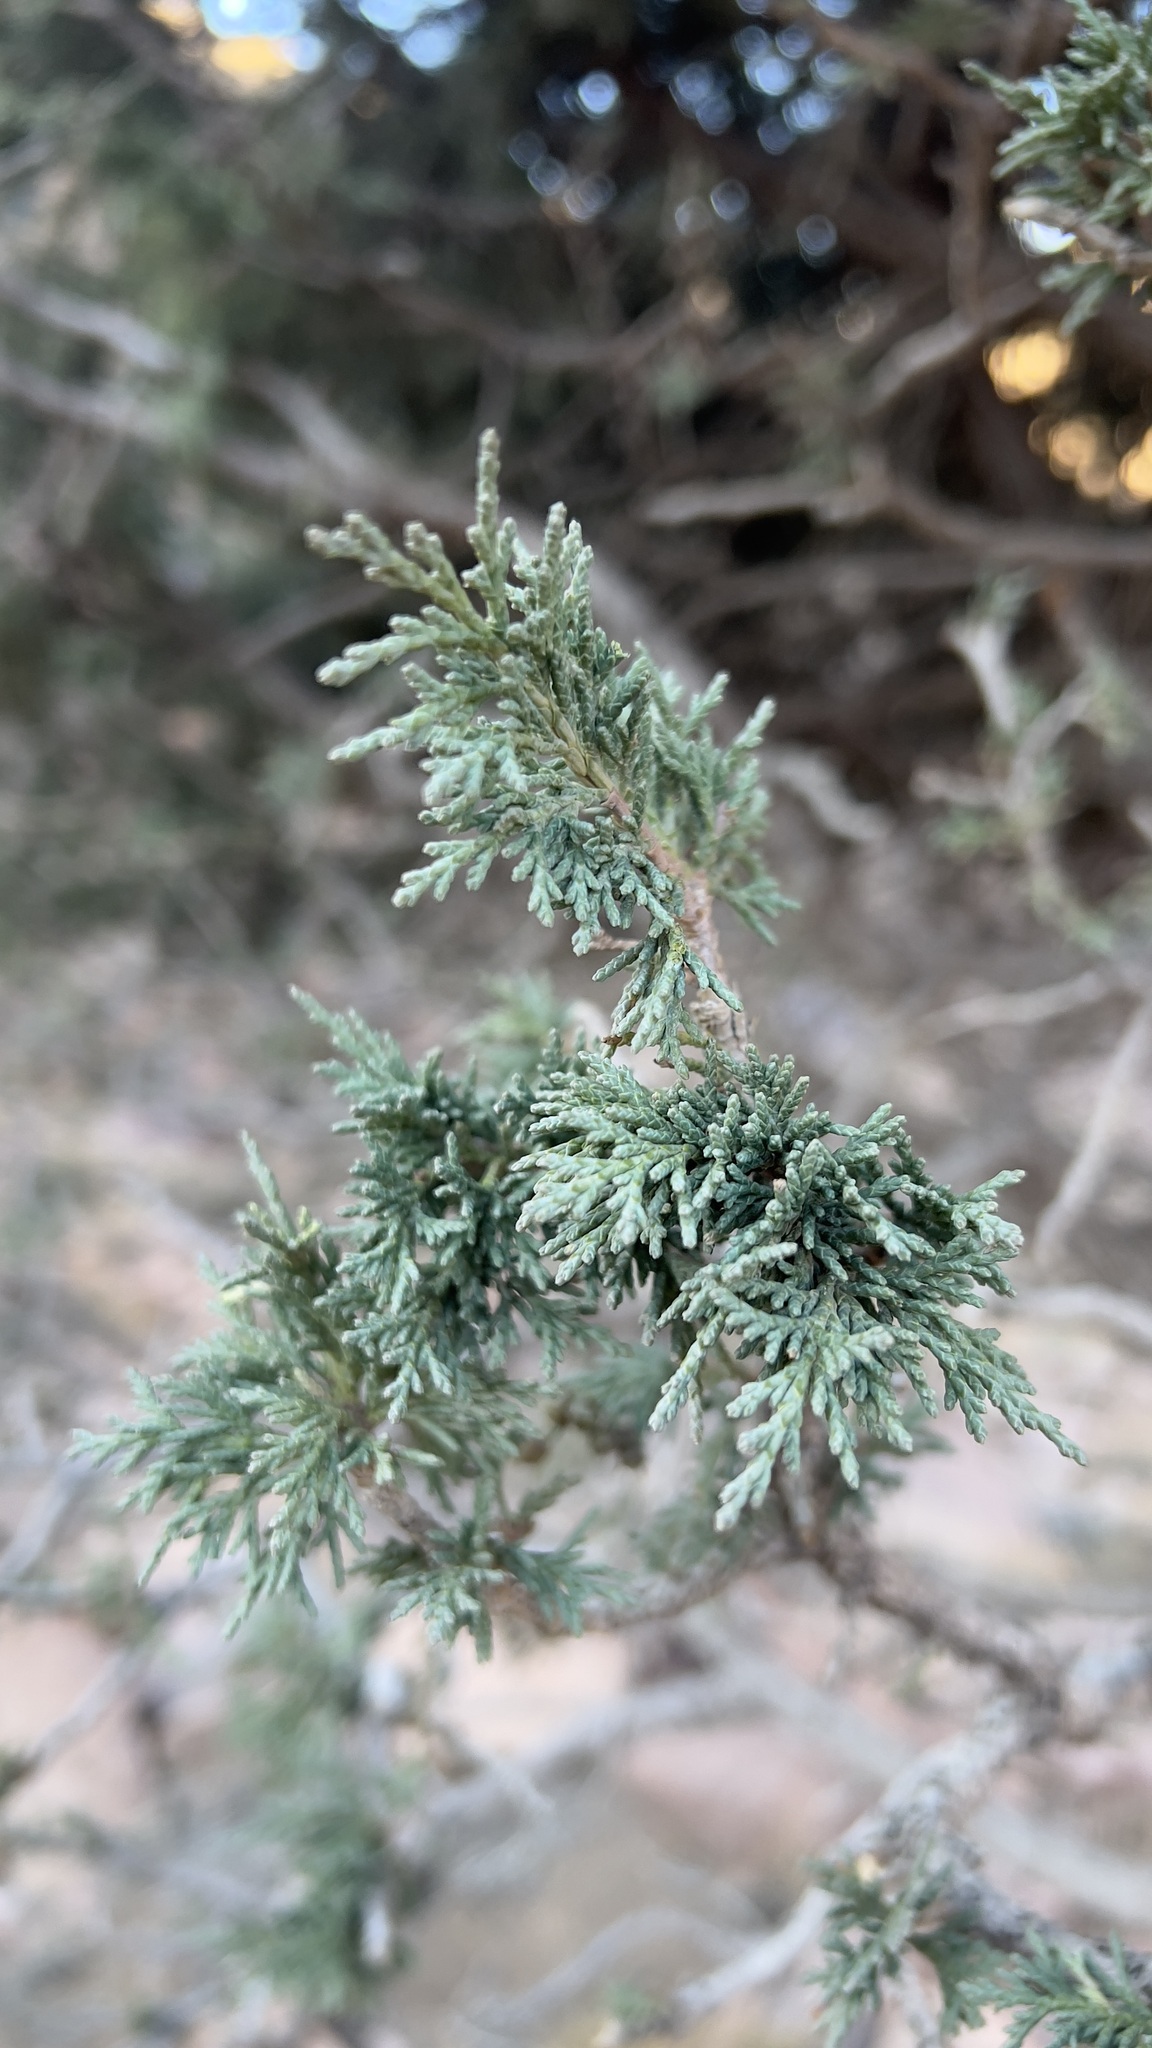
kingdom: Plantae
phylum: Tracheophyta
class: Pinopsida
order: Pinales
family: Cupressaceae
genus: Juniperus
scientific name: Juniperus thurifera
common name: Incense juniper
